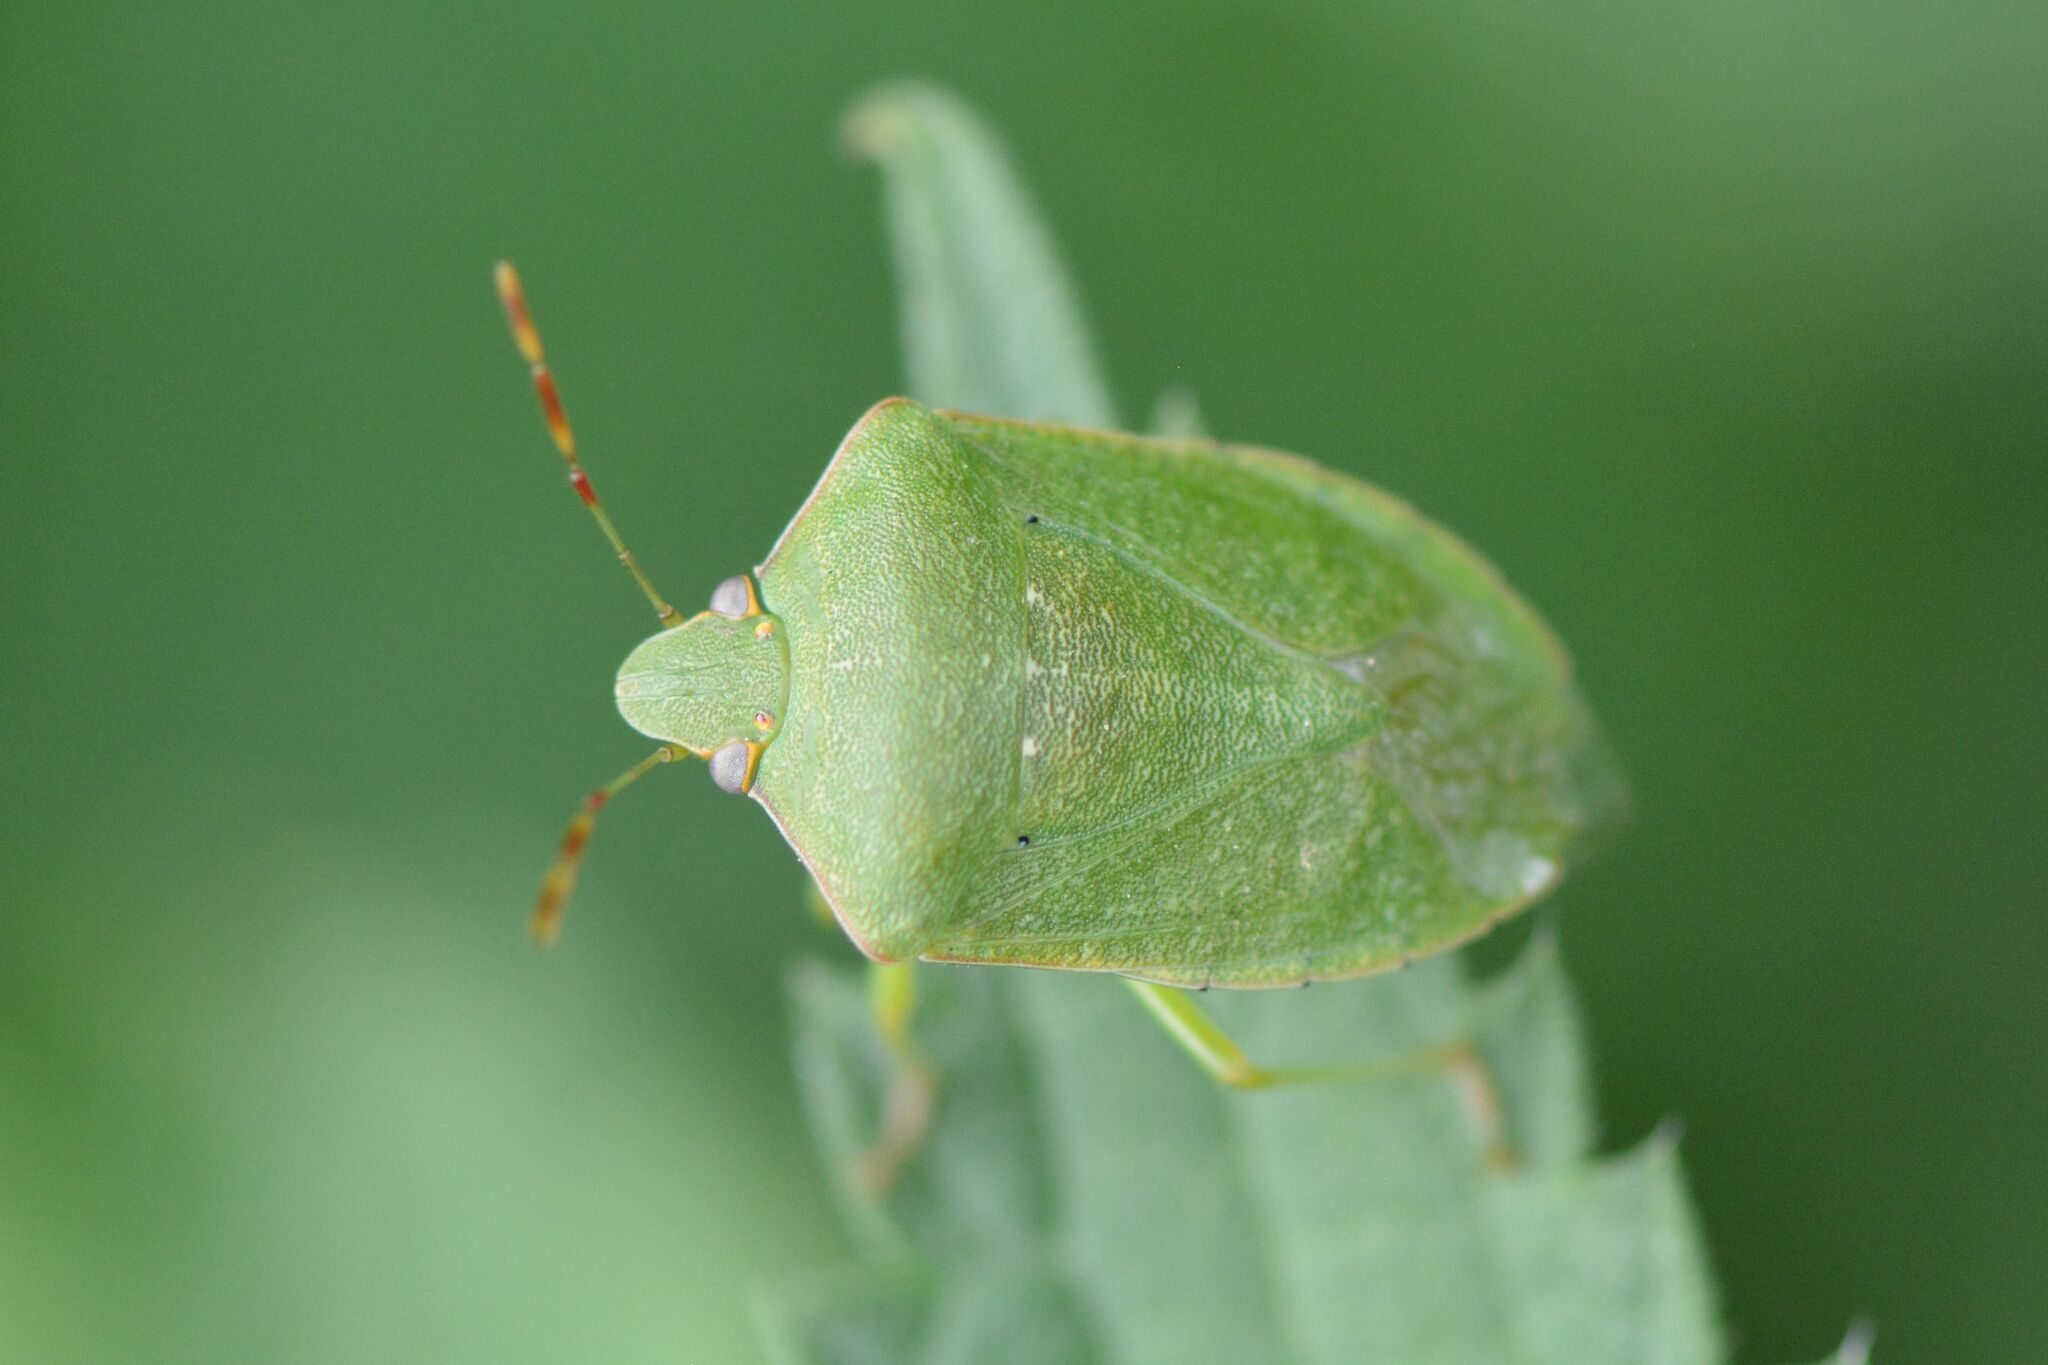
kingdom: Animalia
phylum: Arthropoda
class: Insecta
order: Hemiptera
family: Pentatomidae
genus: Nezara
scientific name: Nezara viridula
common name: Southern green stink bug
